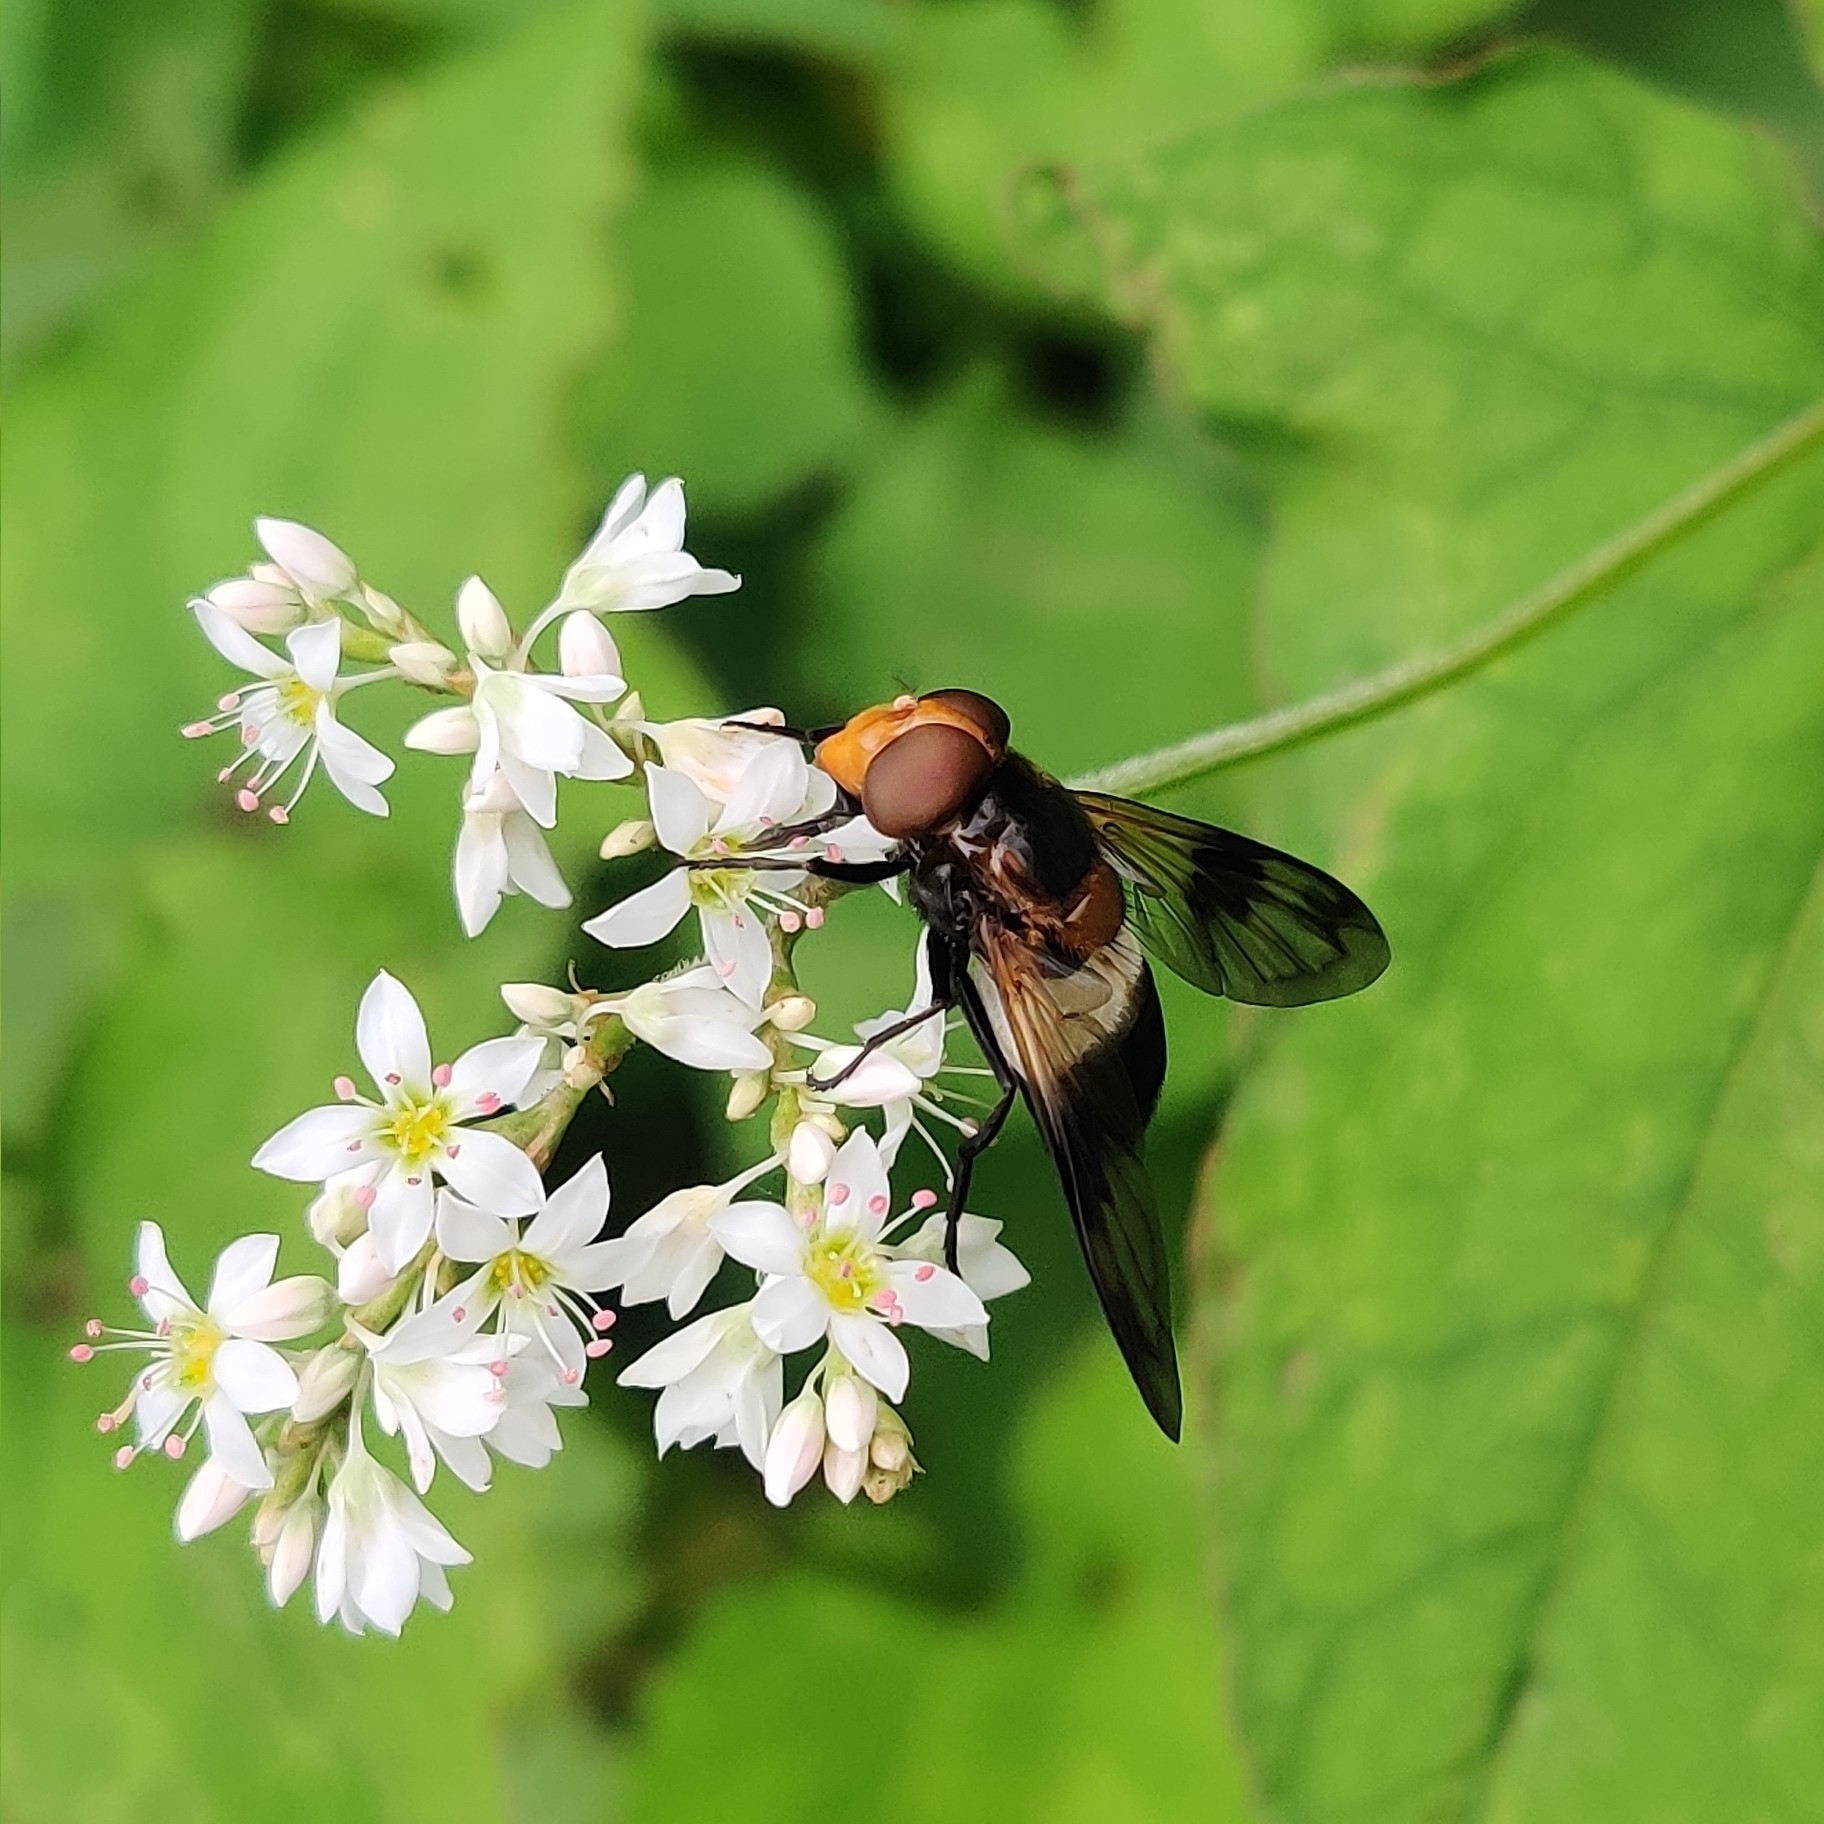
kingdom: Animalia
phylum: Arthropoda
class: Insecta
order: Diptera
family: Syrphidae
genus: Volucella
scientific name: Volucella pellucens
